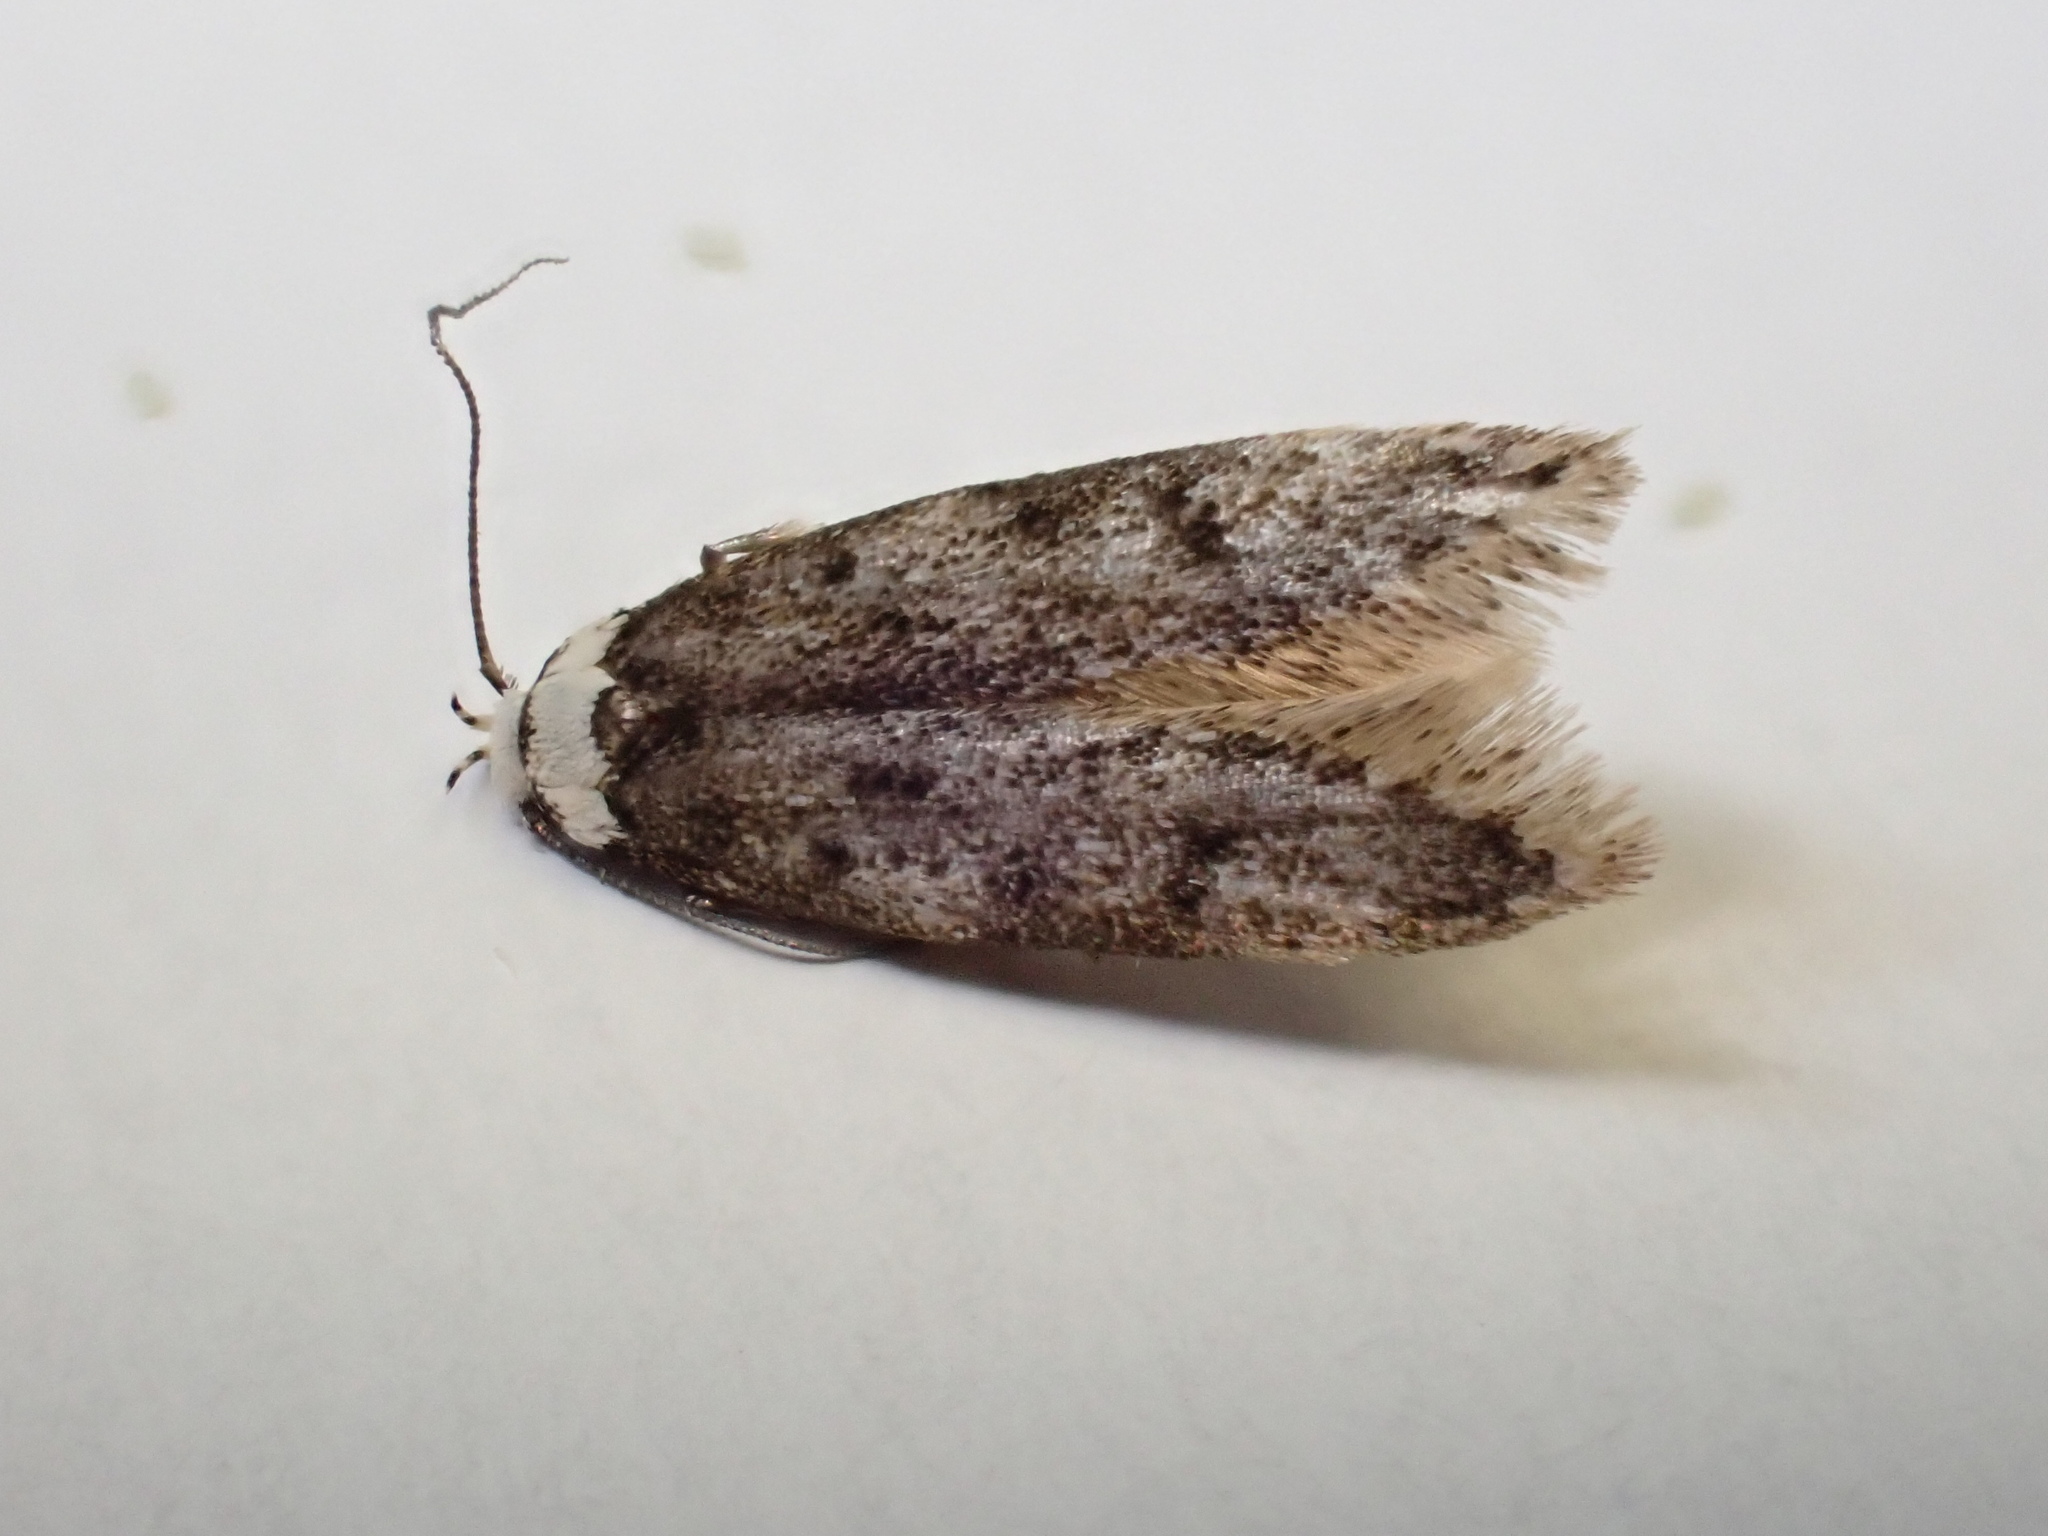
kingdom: Animalia
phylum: Arthropoda
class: Insecta
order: Lepidoptera
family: Oecophoridae
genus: Endrosis
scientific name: Endrosis sarcitrella
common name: White-shouldered house moth
